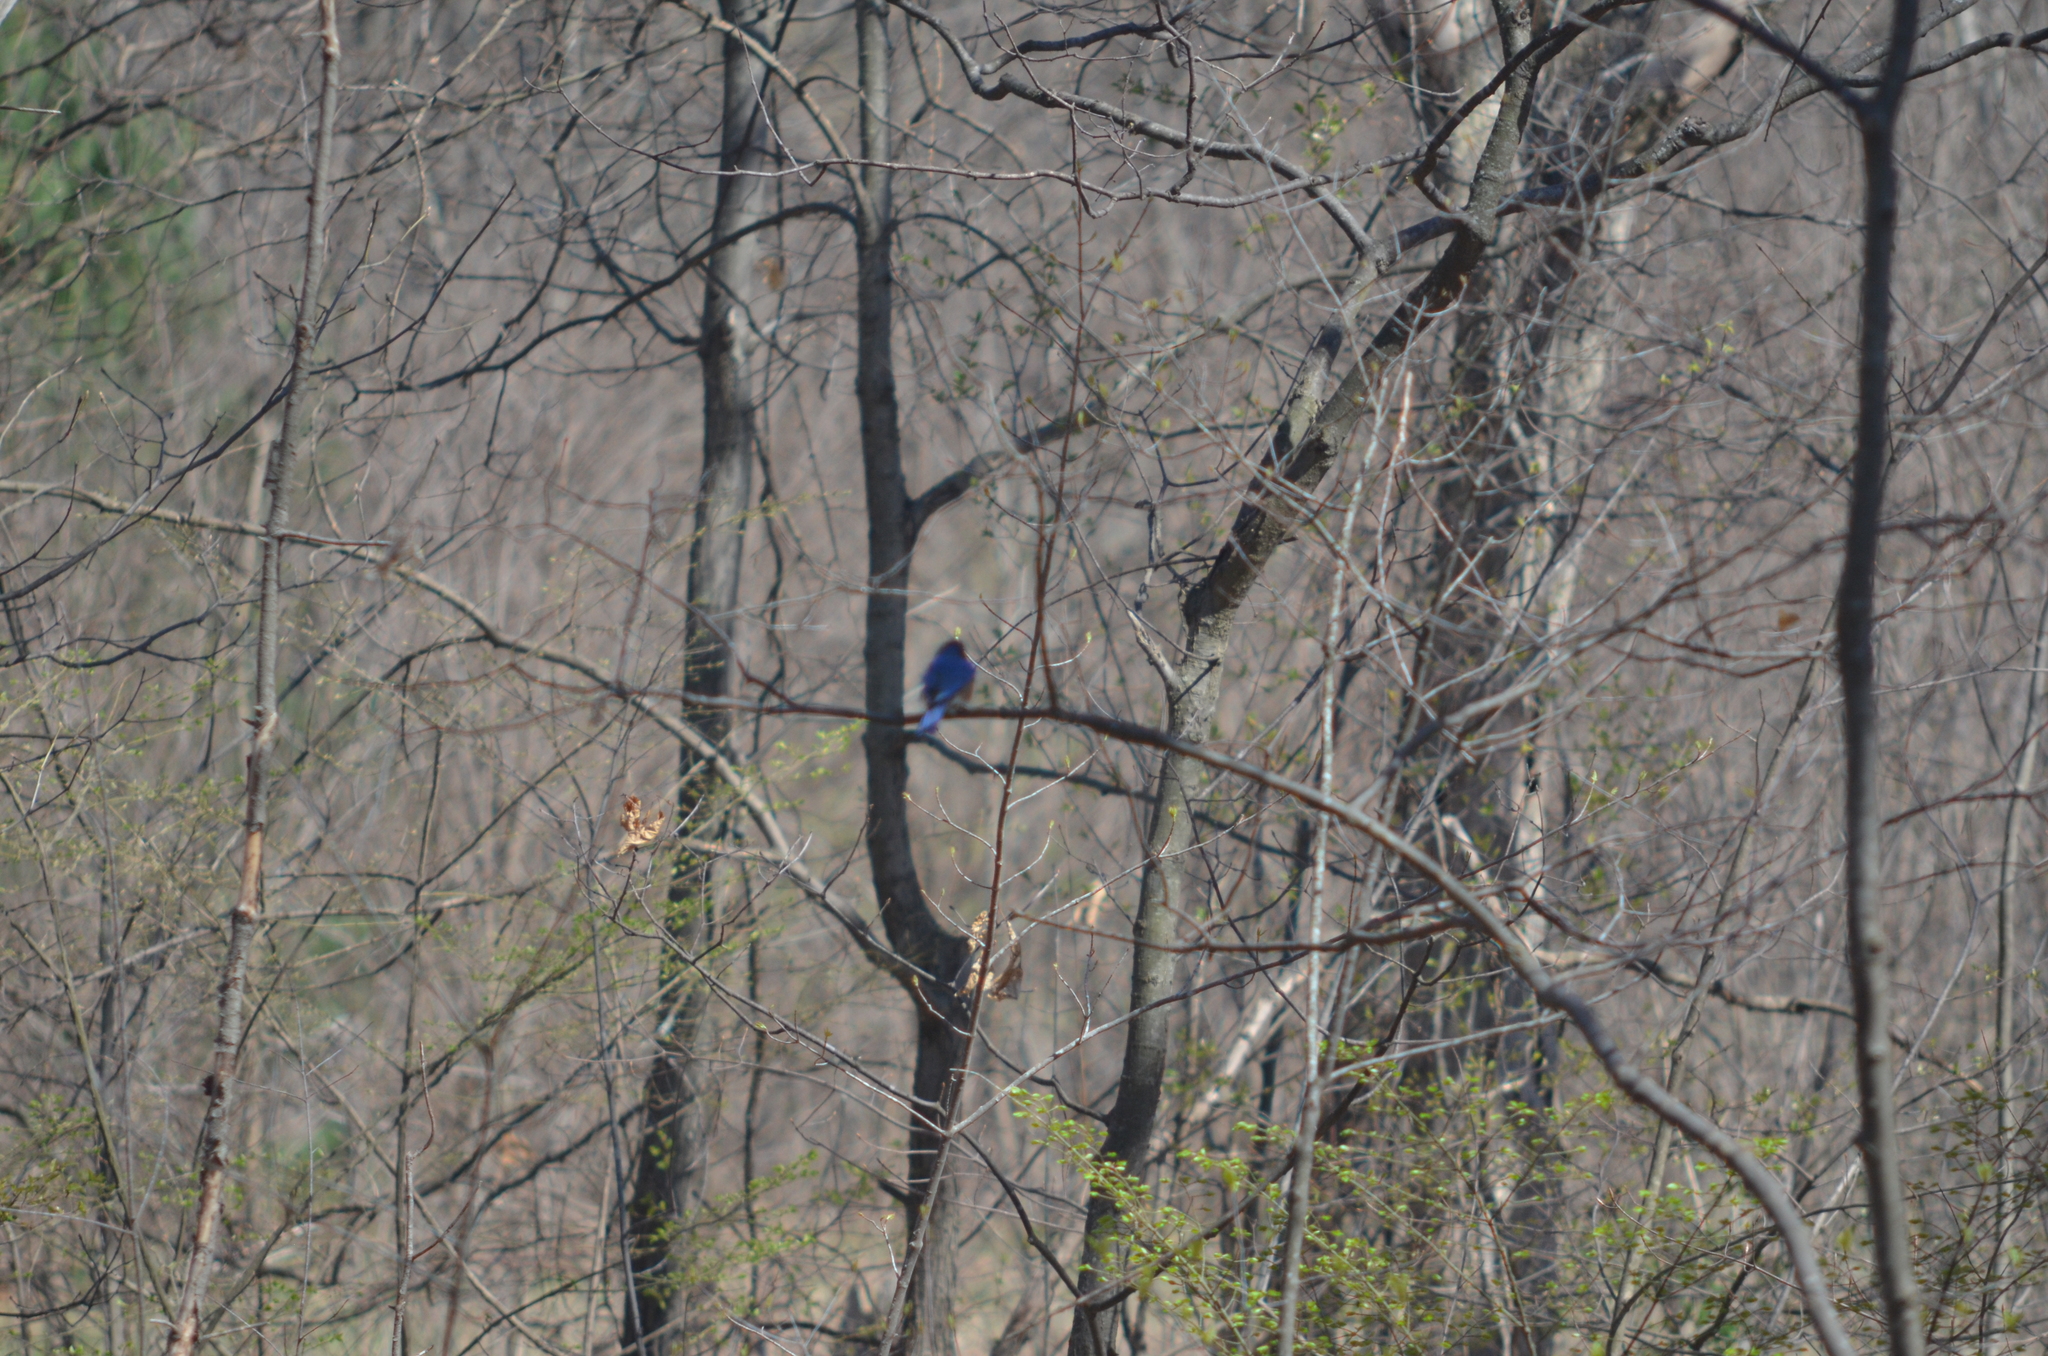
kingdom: Animalia
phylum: Chordata
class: Aves
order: Passeriformes
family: Turdidae
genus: Sialia
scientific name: Sialia sialis
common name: Eastern bluebird
